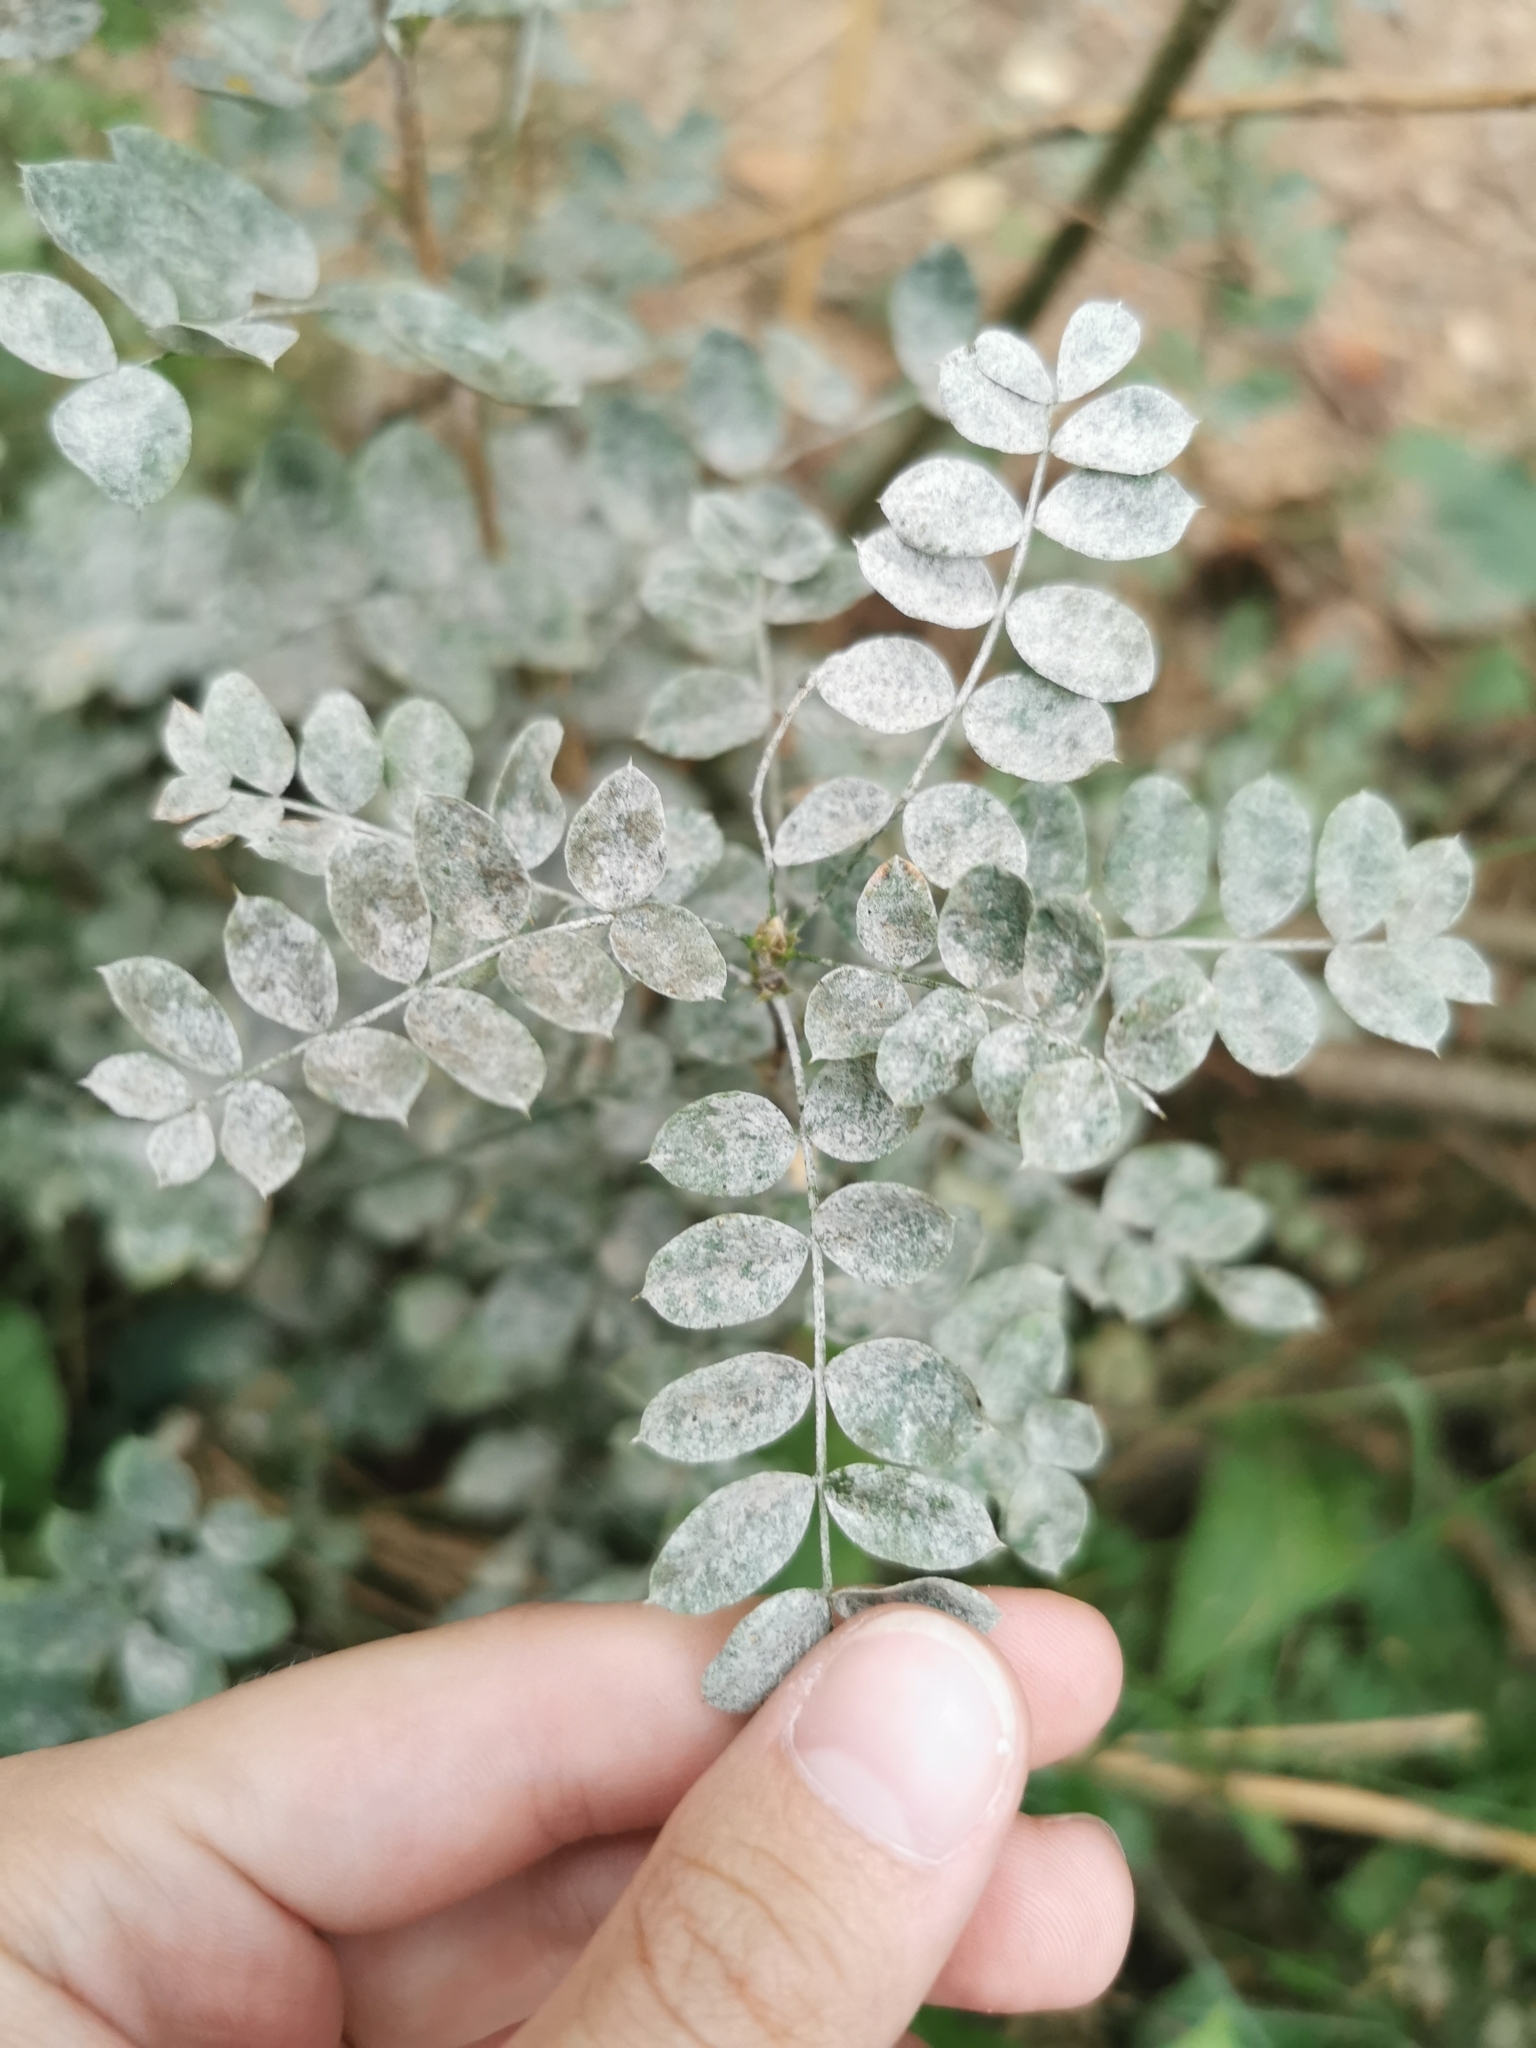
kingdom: Fungi
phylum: Ascomycota
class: Leotiomycetes
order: Helotiales
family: Erysiphaceae
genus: Erysiphe
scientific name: Erysiphe palczewskii
